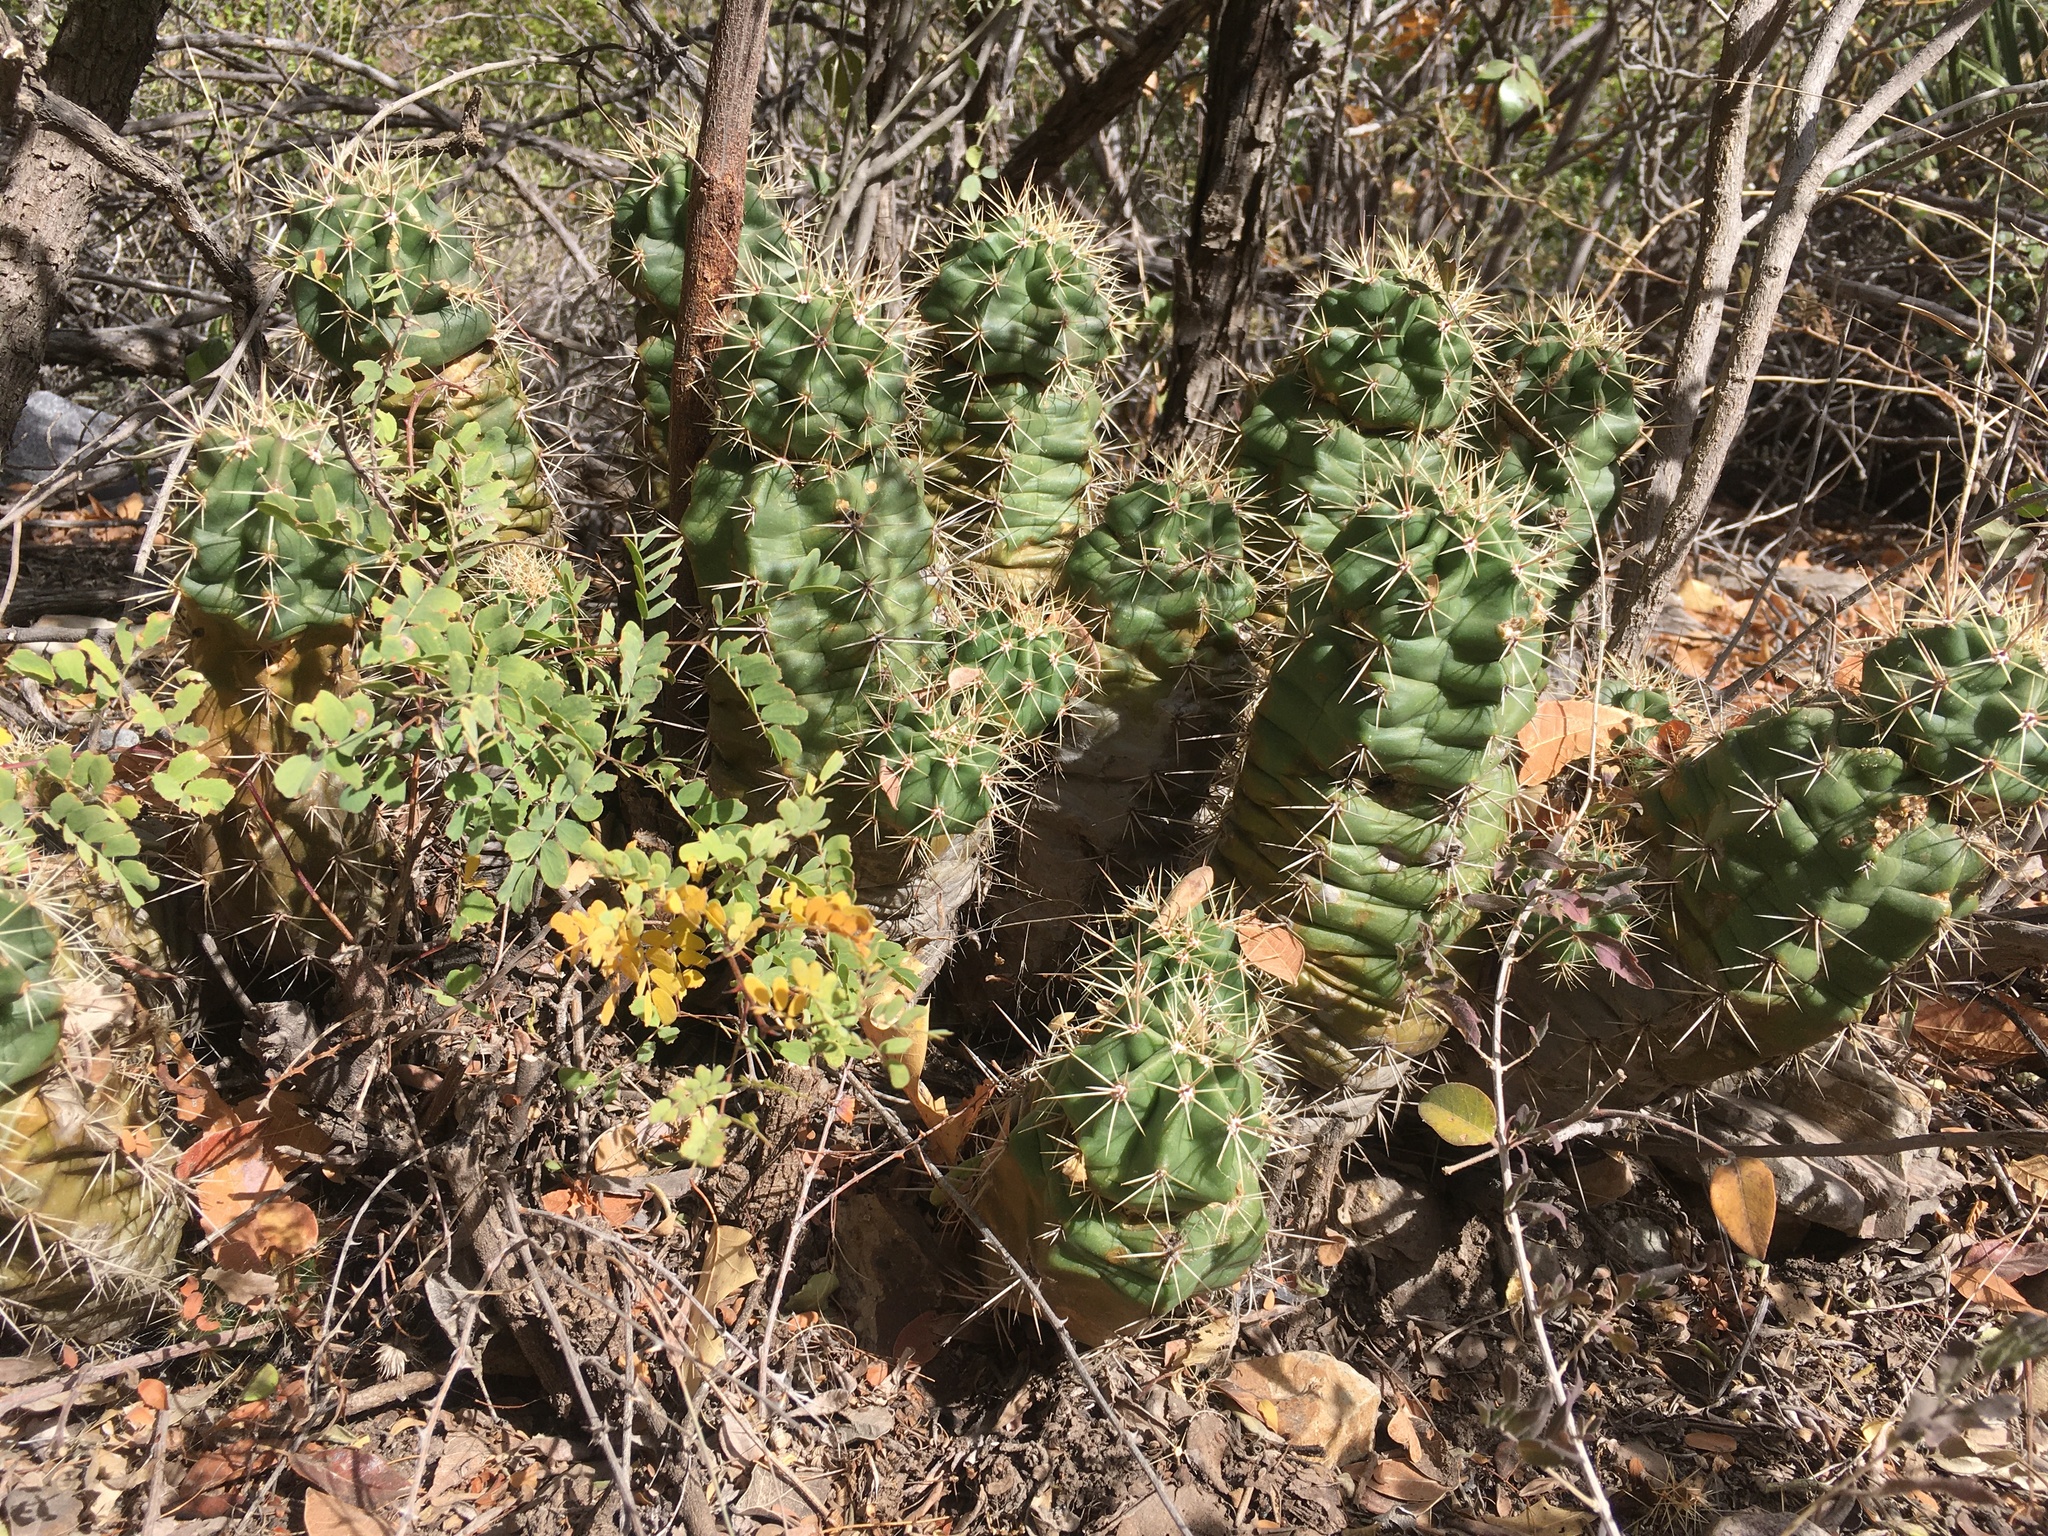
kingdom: Plantae
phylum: Tracheophyta
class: Magnoliopsida
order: Caryophyllales
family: Cactaceae
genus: Echinocereus
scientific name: Echinocereus coccineus
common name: Scarlet hedgehog cactus
